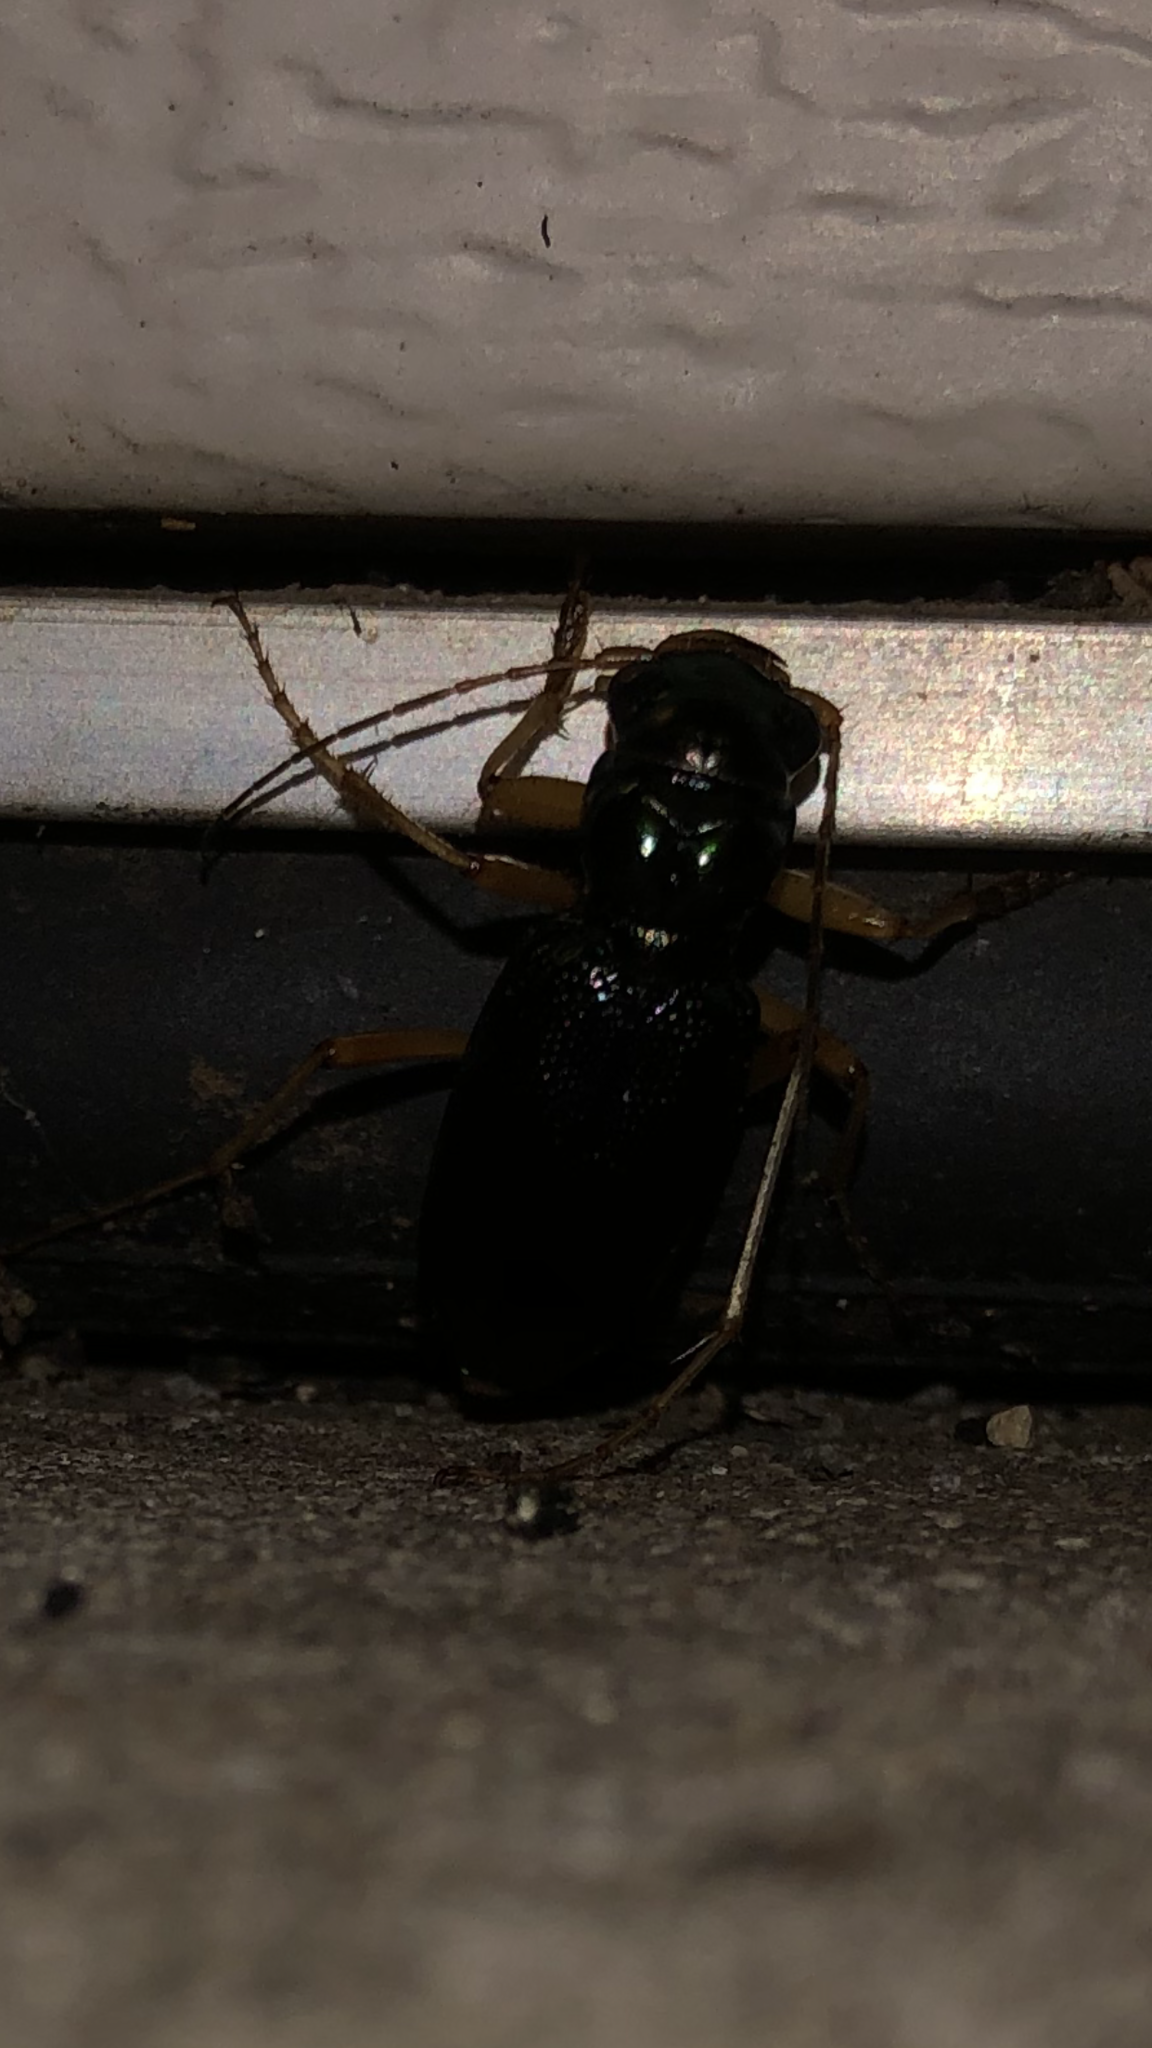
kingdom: Animalia
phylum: Arthropoda
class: Insecta
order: Coleoptera
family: Carabidae
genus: Tetracha
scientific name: Tetracha virginica
